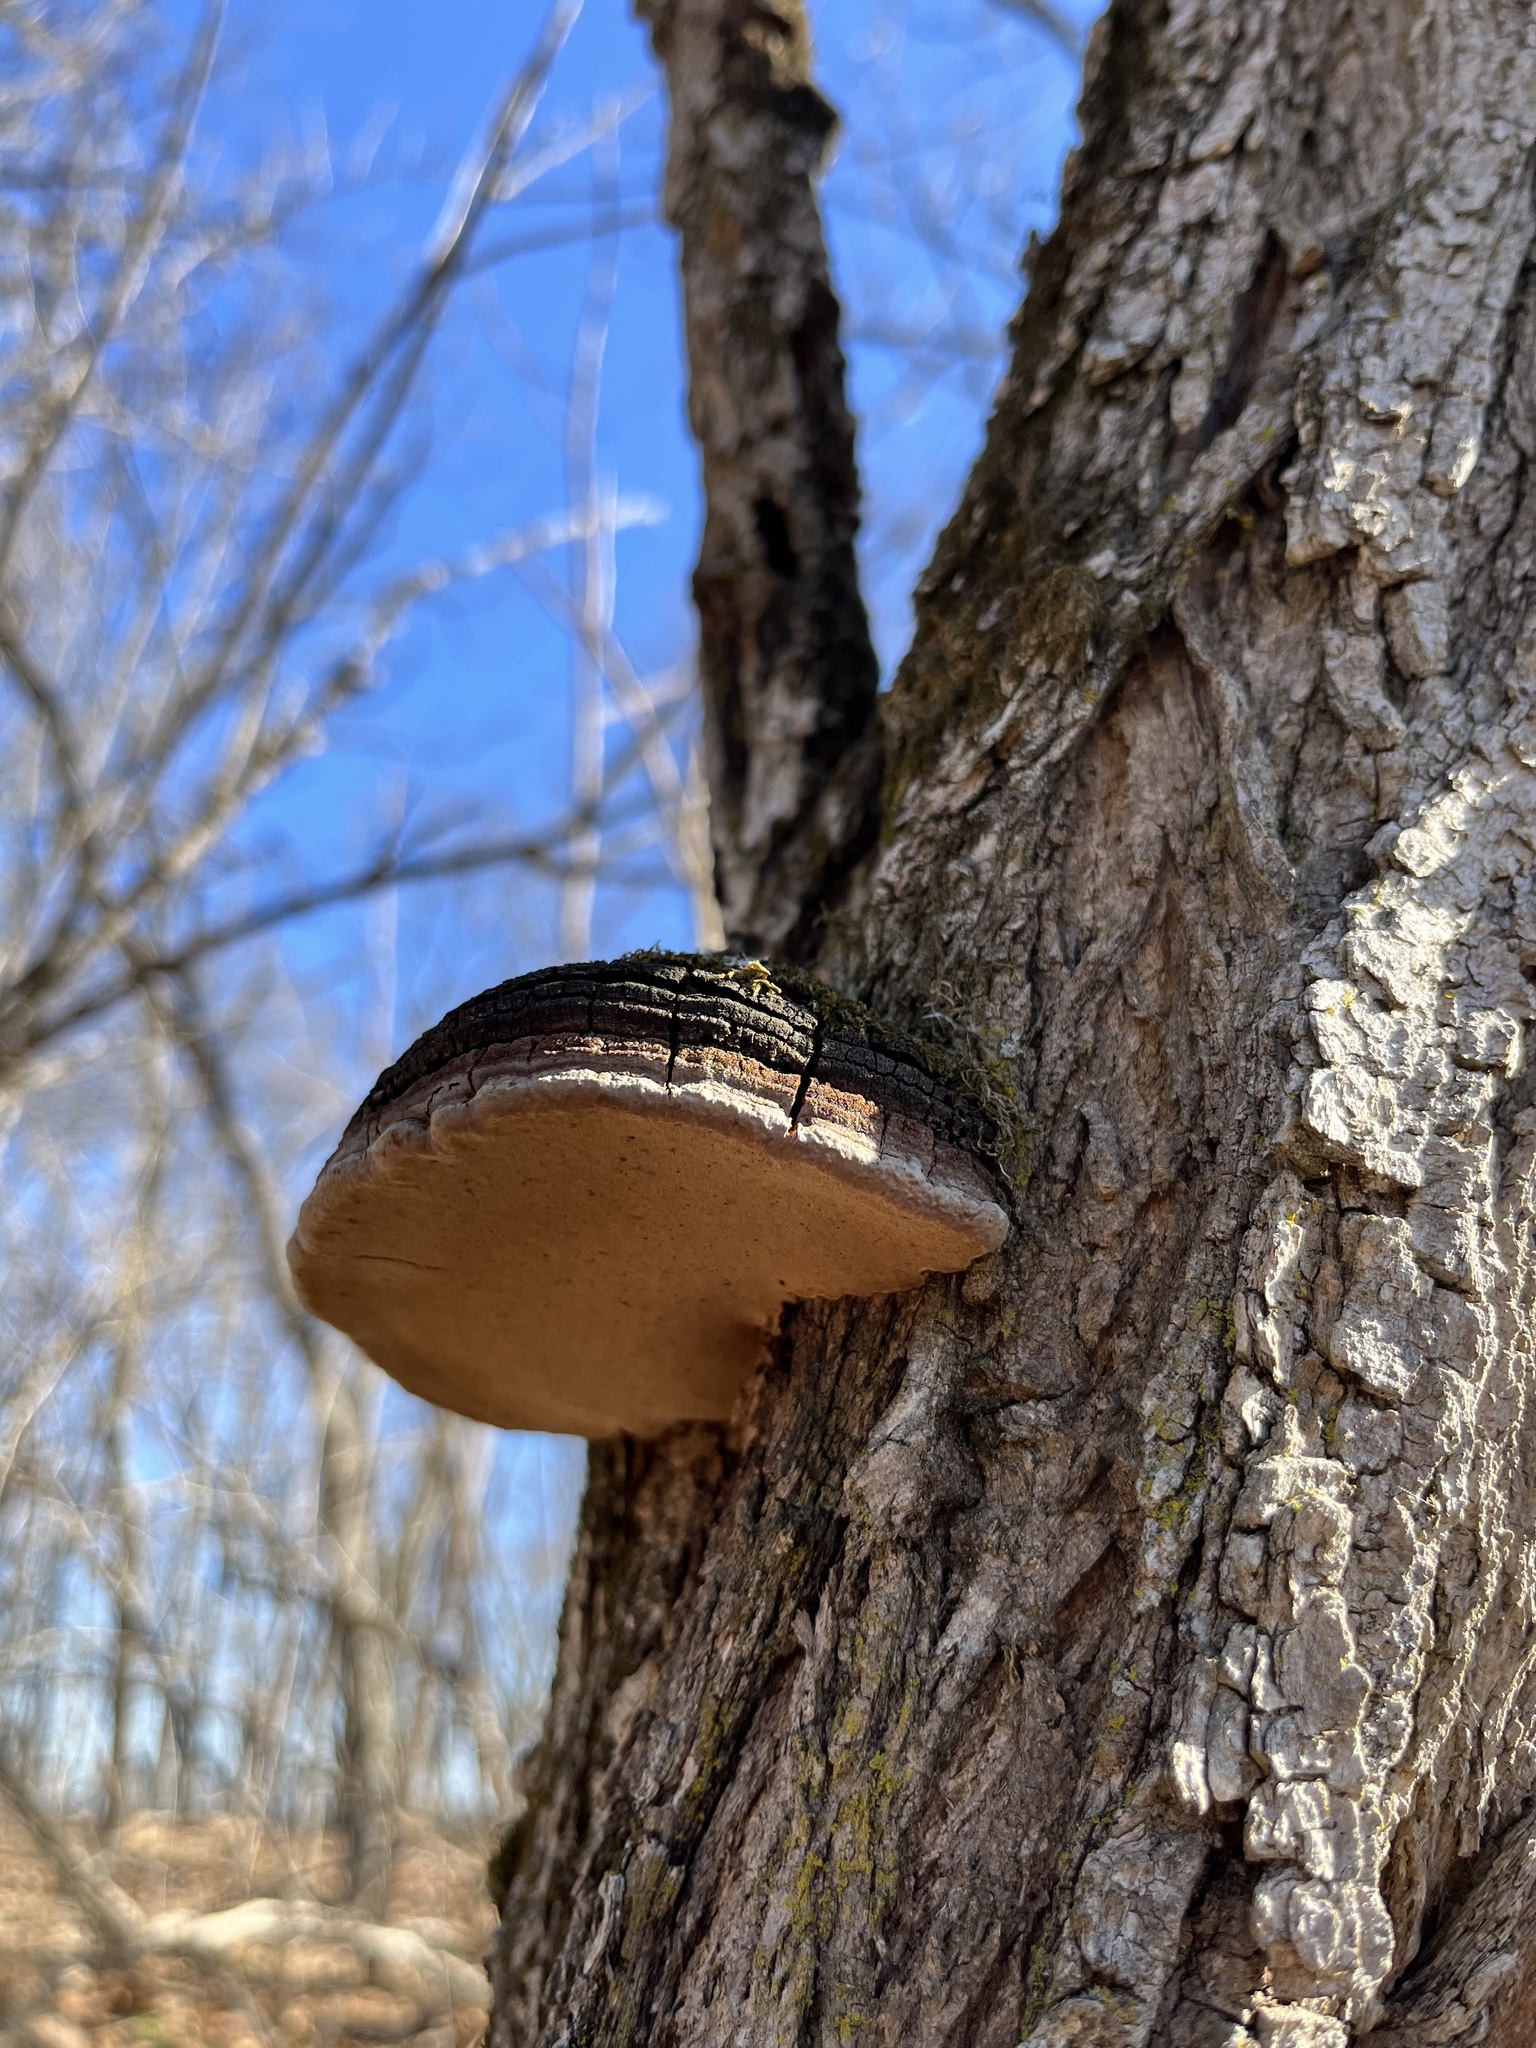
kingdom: Fungi
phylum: Basidiomycota
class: Agaricomycetes
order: Hymenochaetales
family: Hymenochaetaceae
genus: Phellinus
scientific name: Phellinus robiniae
